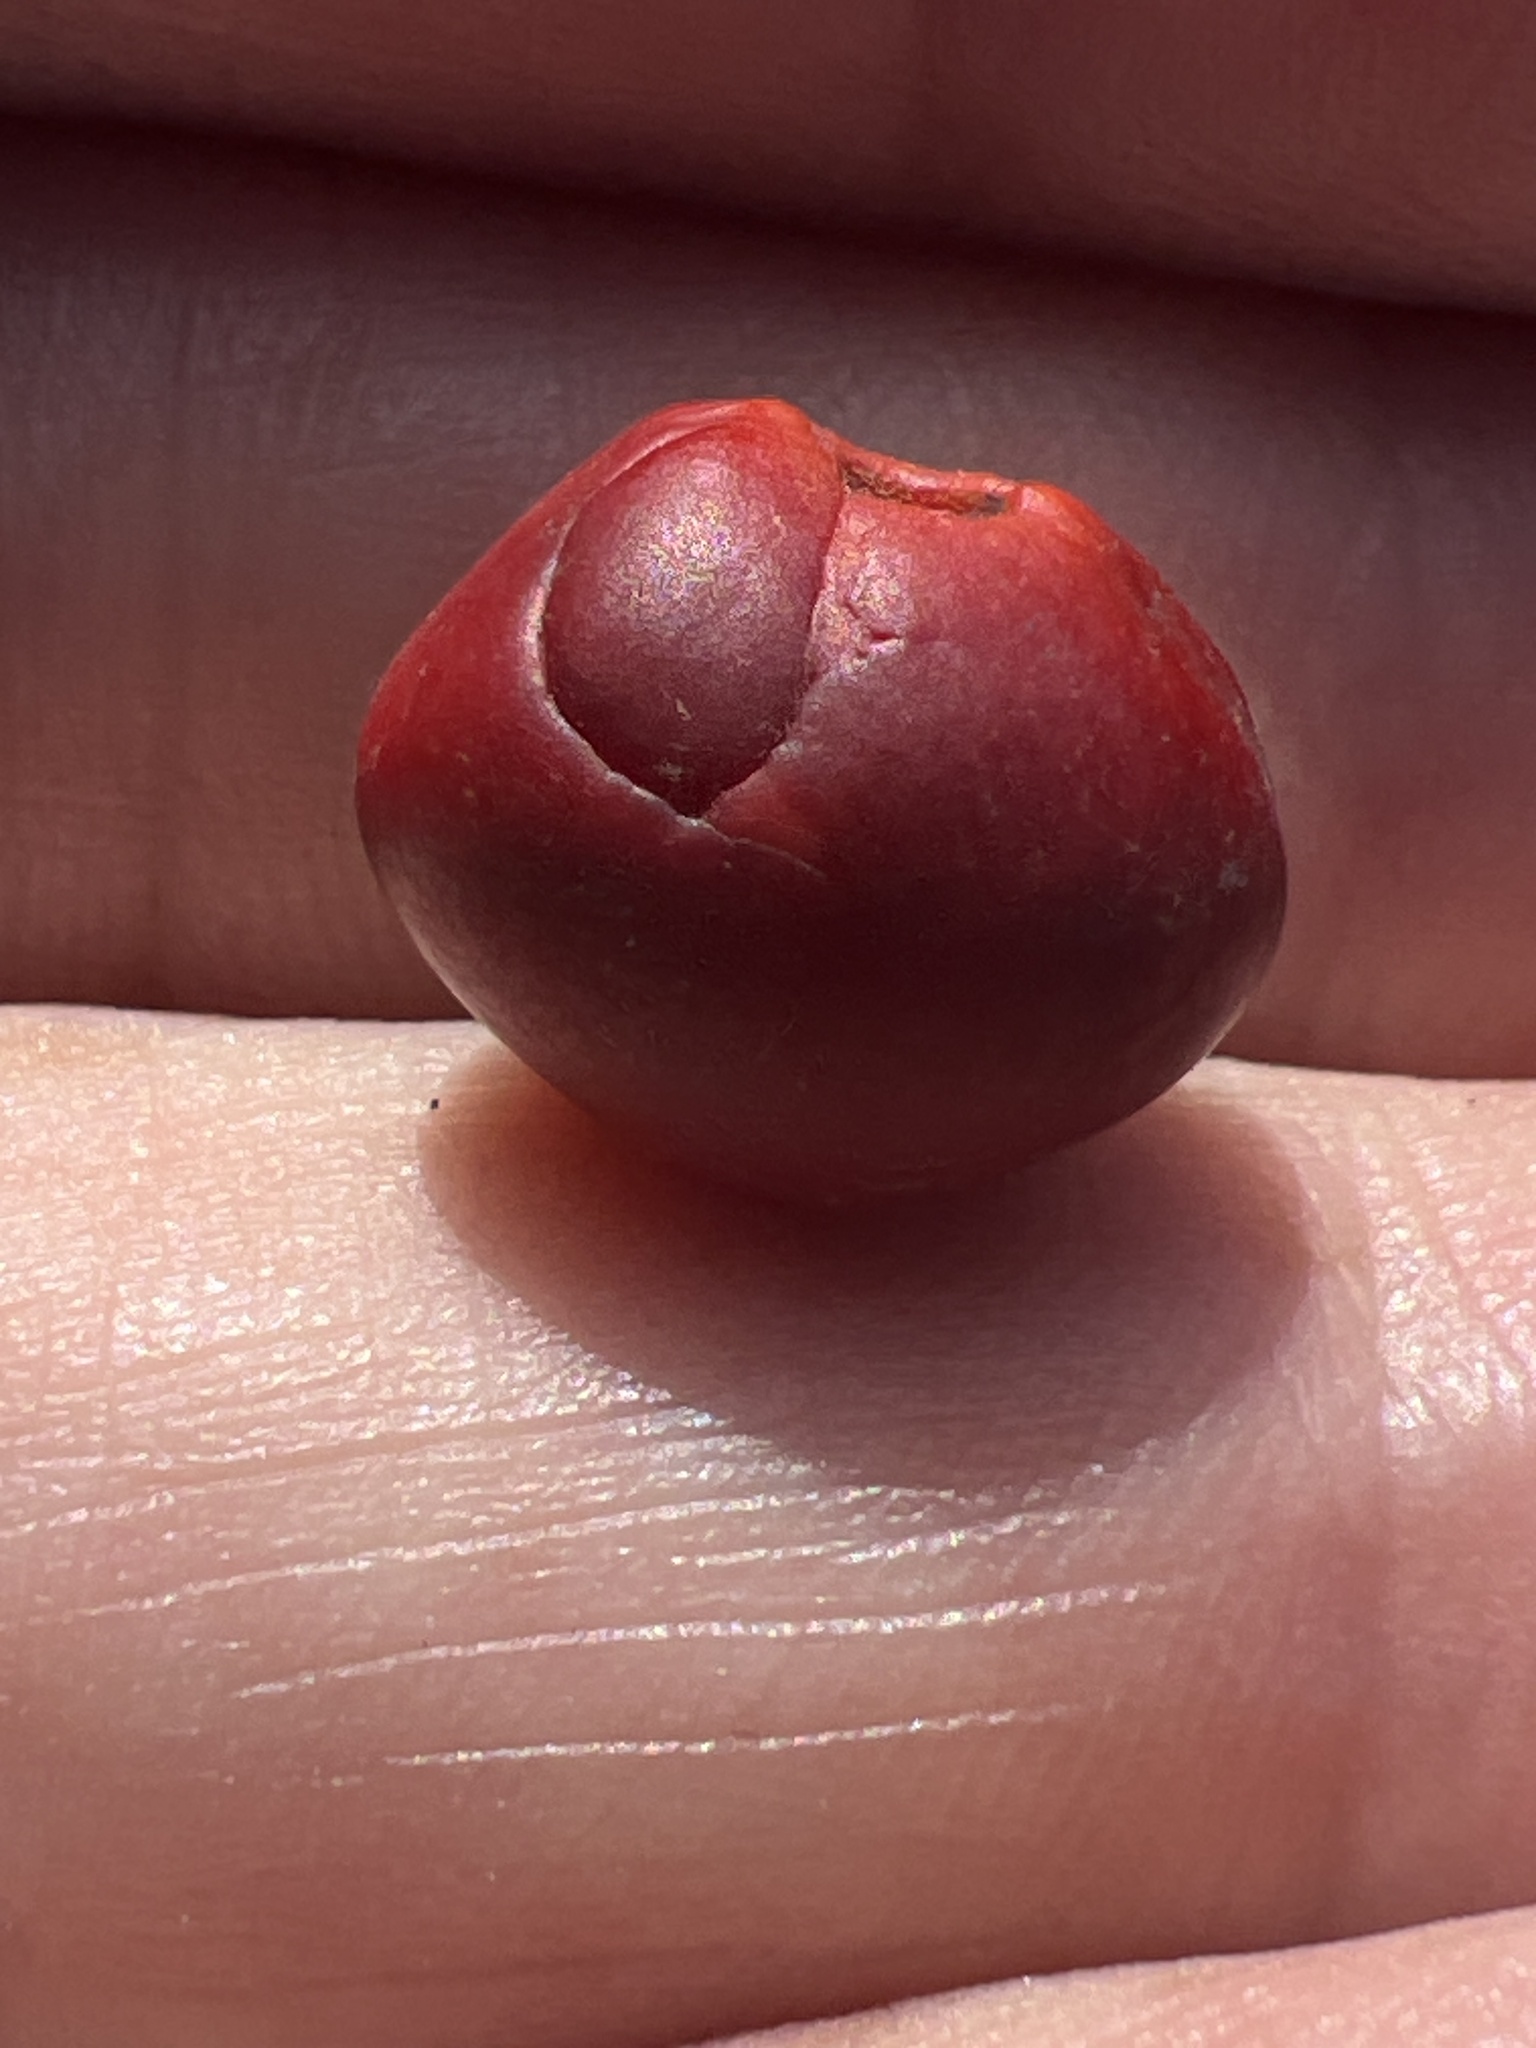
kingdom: Plantae
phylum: Tracheophyta
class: Magnoliopsida
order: Fabales
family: Fabaceae
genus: Dermatophyllum
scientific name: Dermatophyllum secundiflorum
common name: Texas-mountain-laurel
